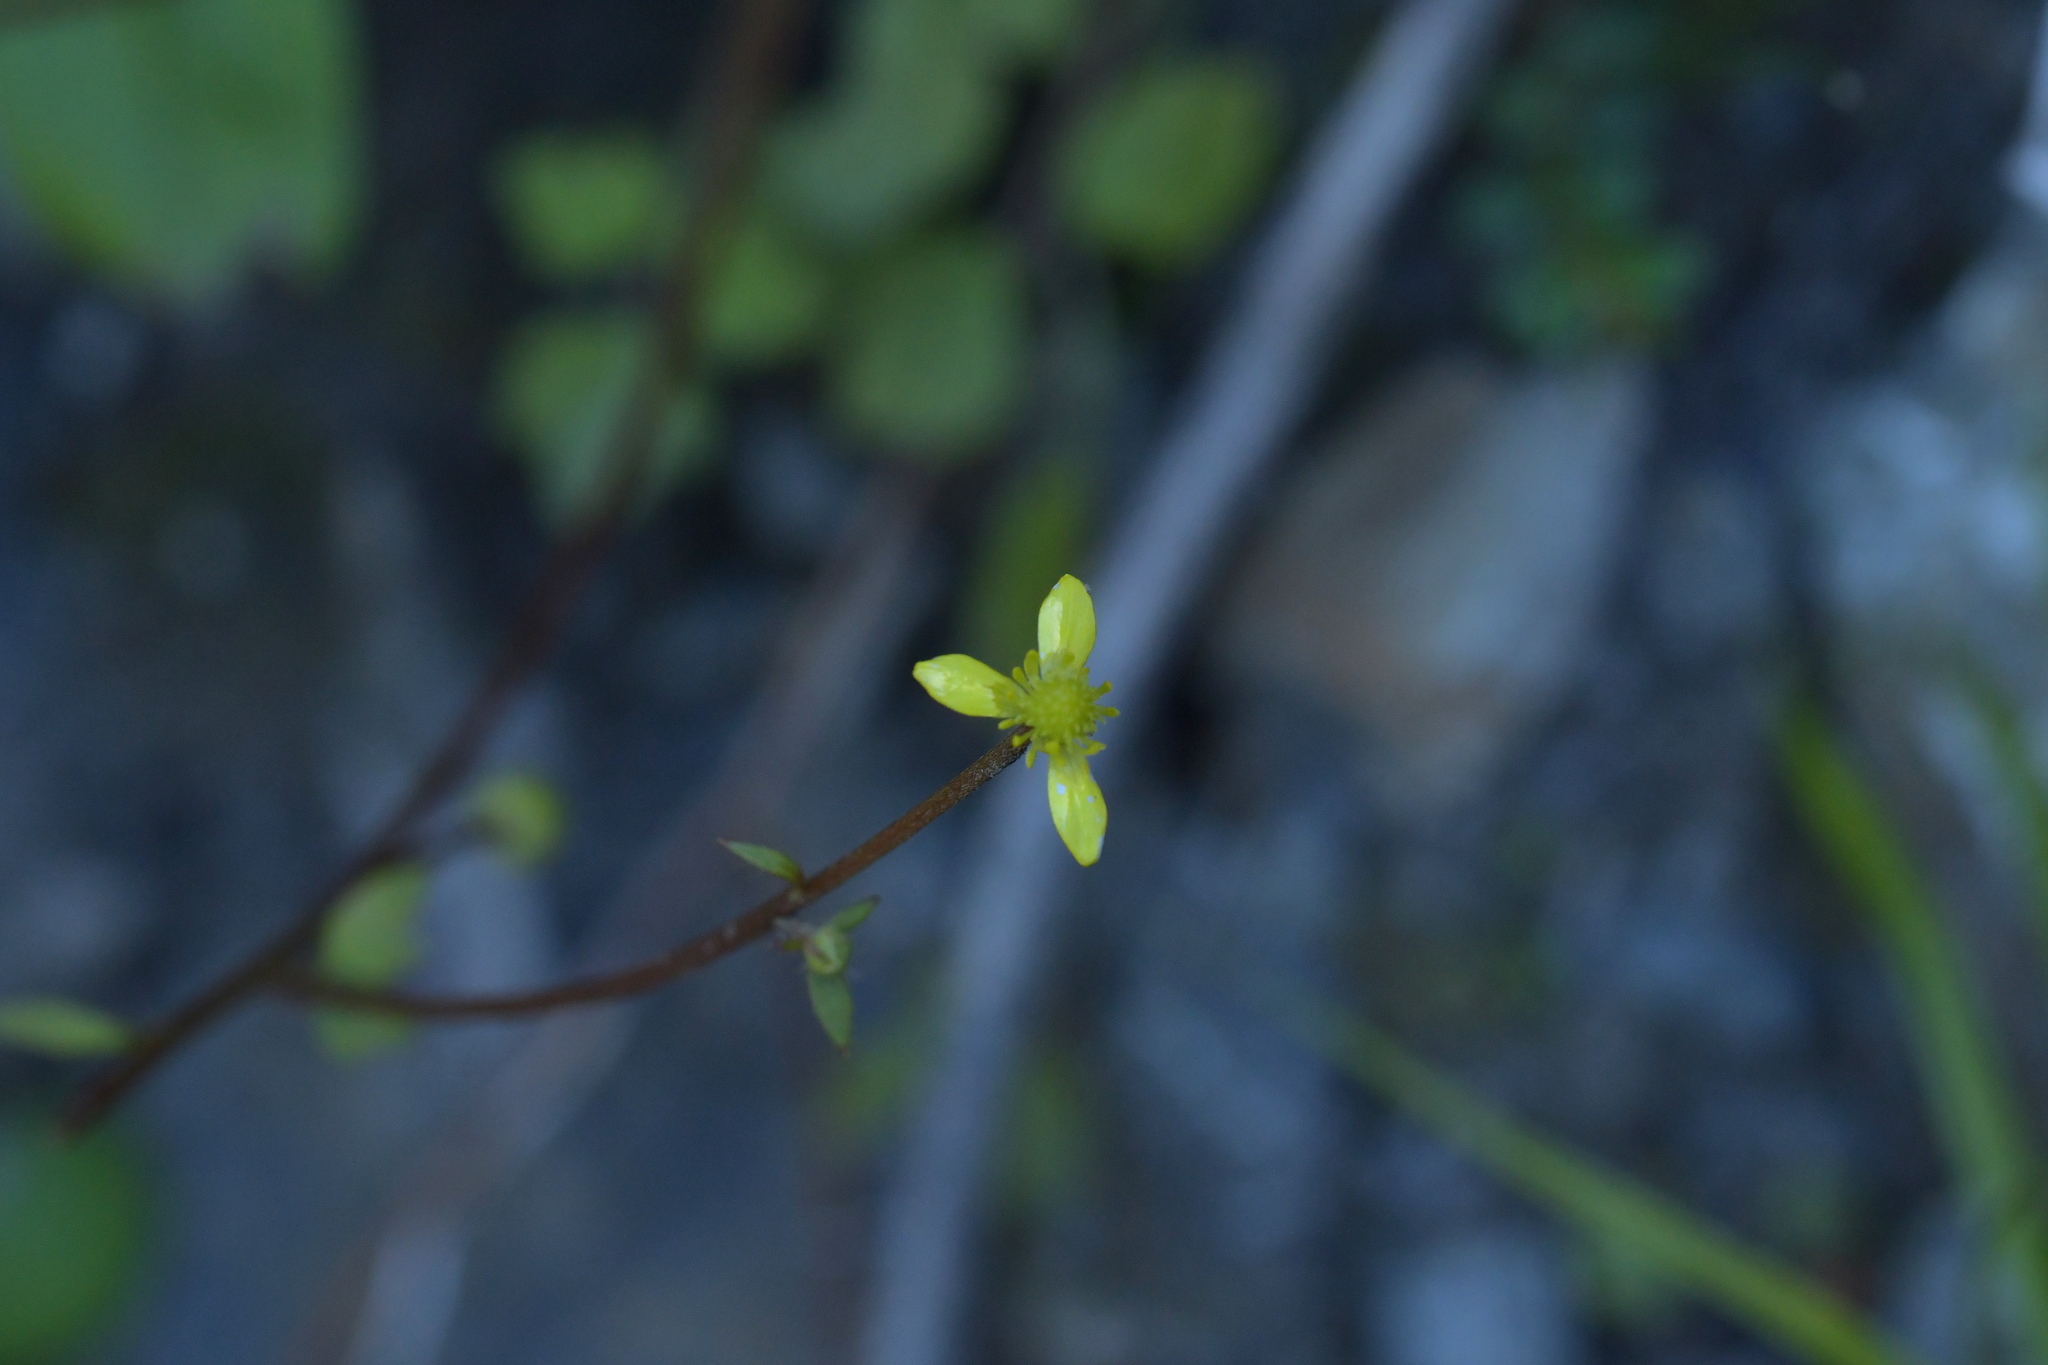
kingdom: Plantae
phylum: Tracheophyta
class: Magnoliopsida
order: Ranunculales
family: Ranunculaceae
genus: Ranunculus
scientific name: Ranunculus reflexus
